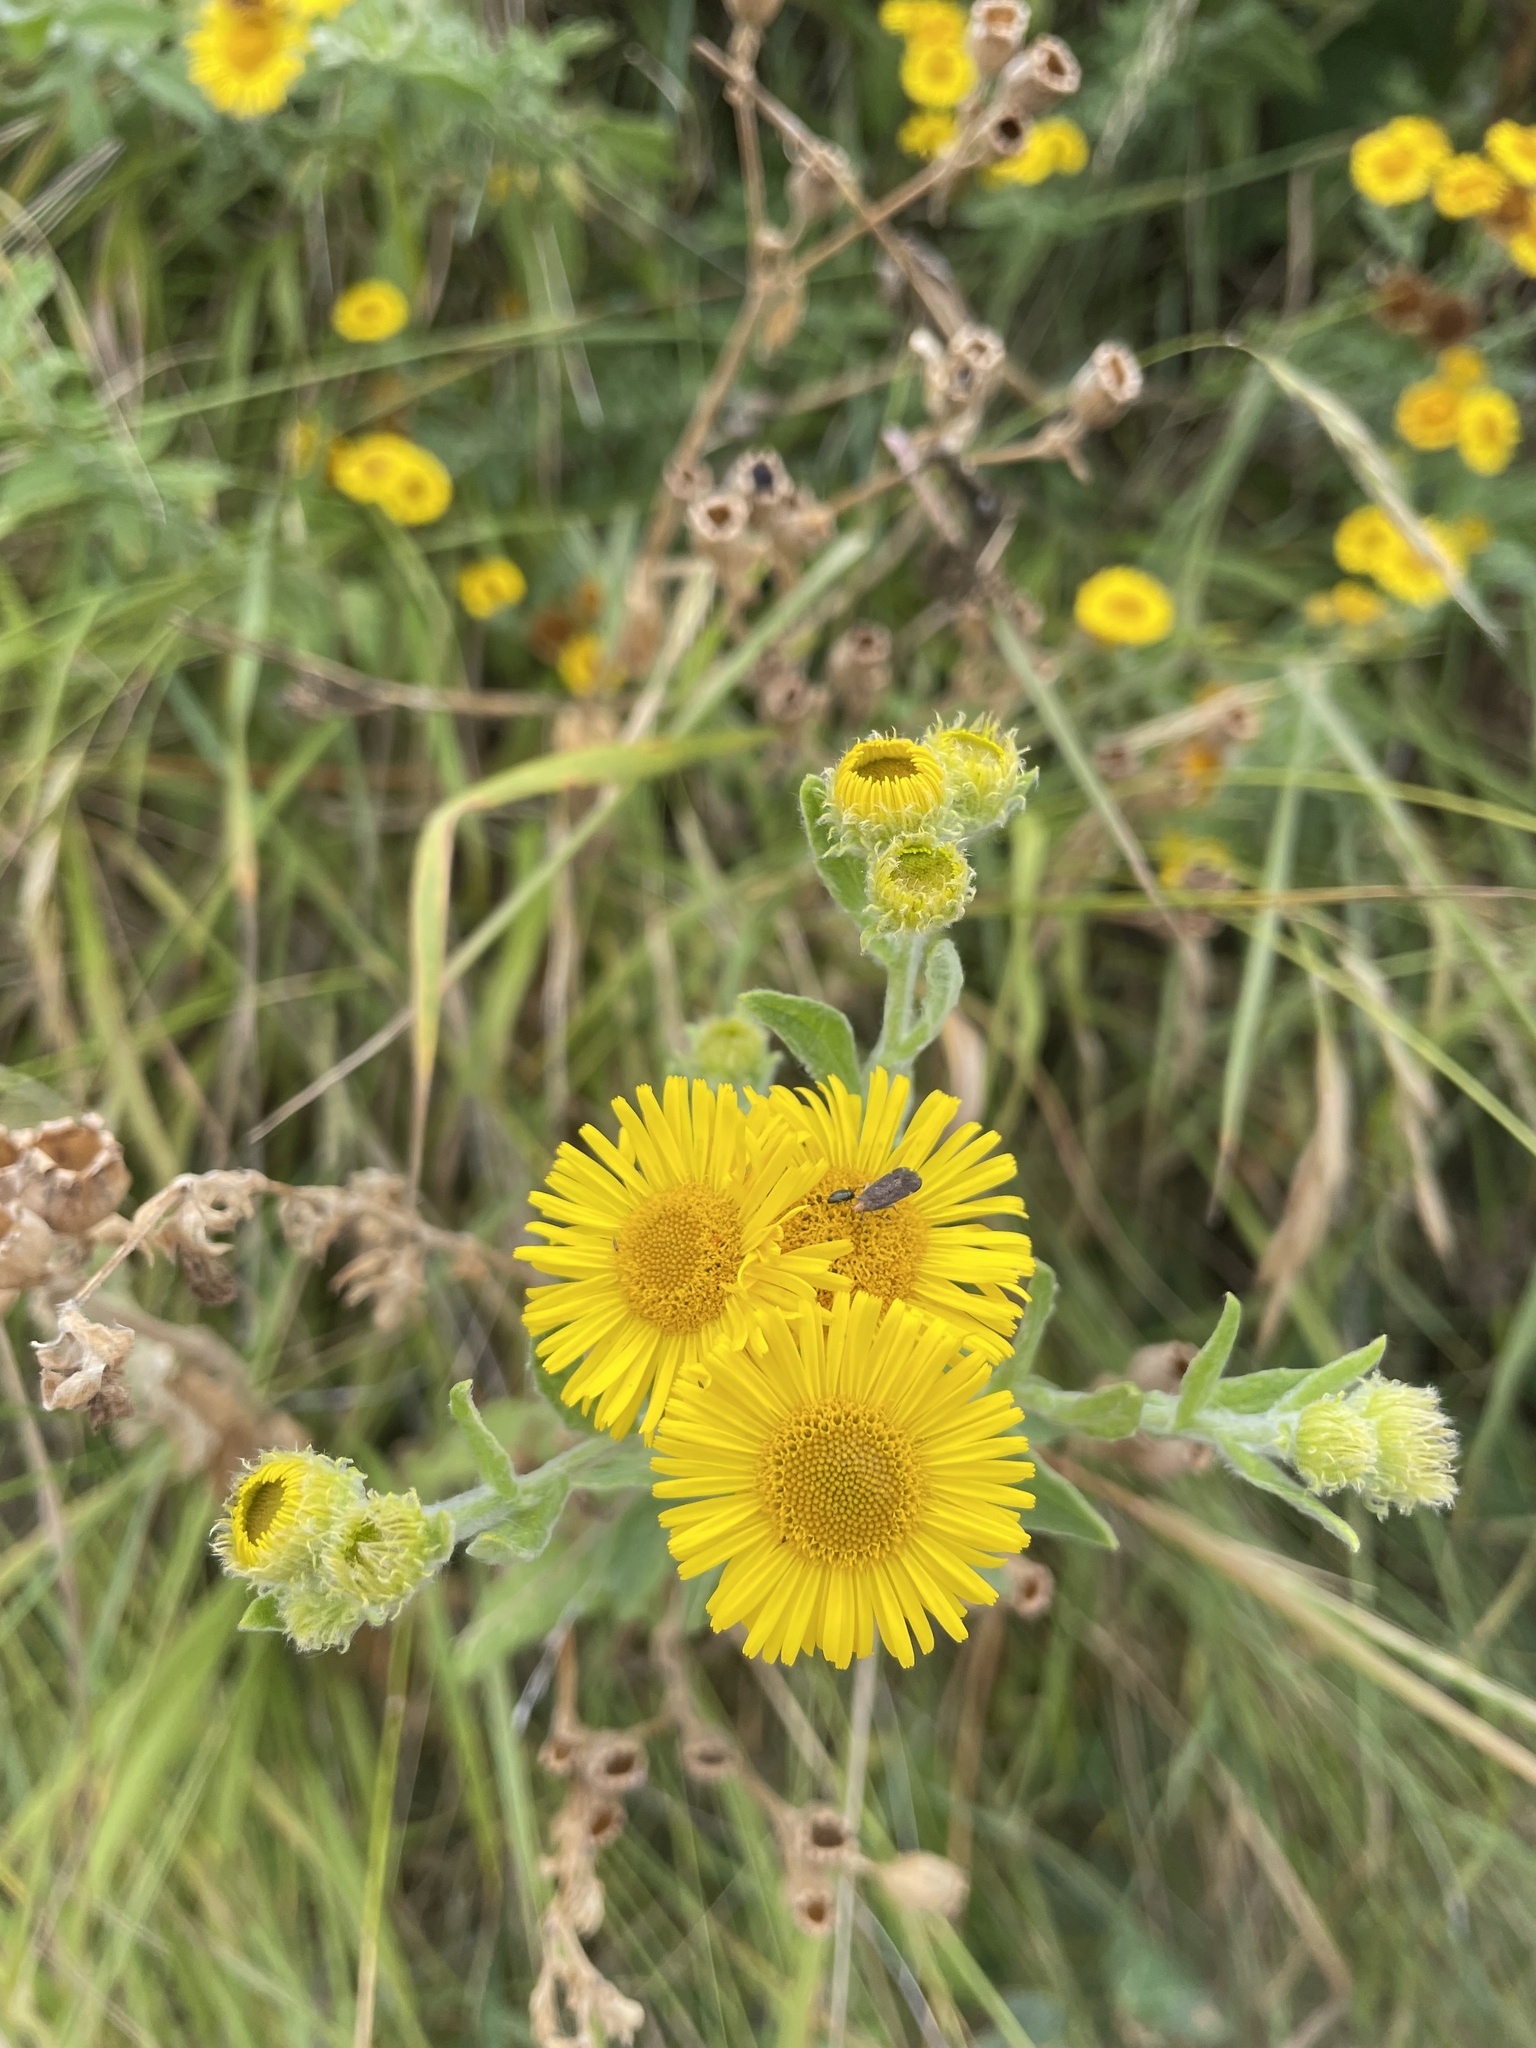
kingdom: Plantae
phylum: Tracheophyta
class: Magnoliopsida
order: Asterales
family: Asteraceae
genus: Pulicaria
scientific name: Pulicaria dysenterica
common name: Common fleabane
